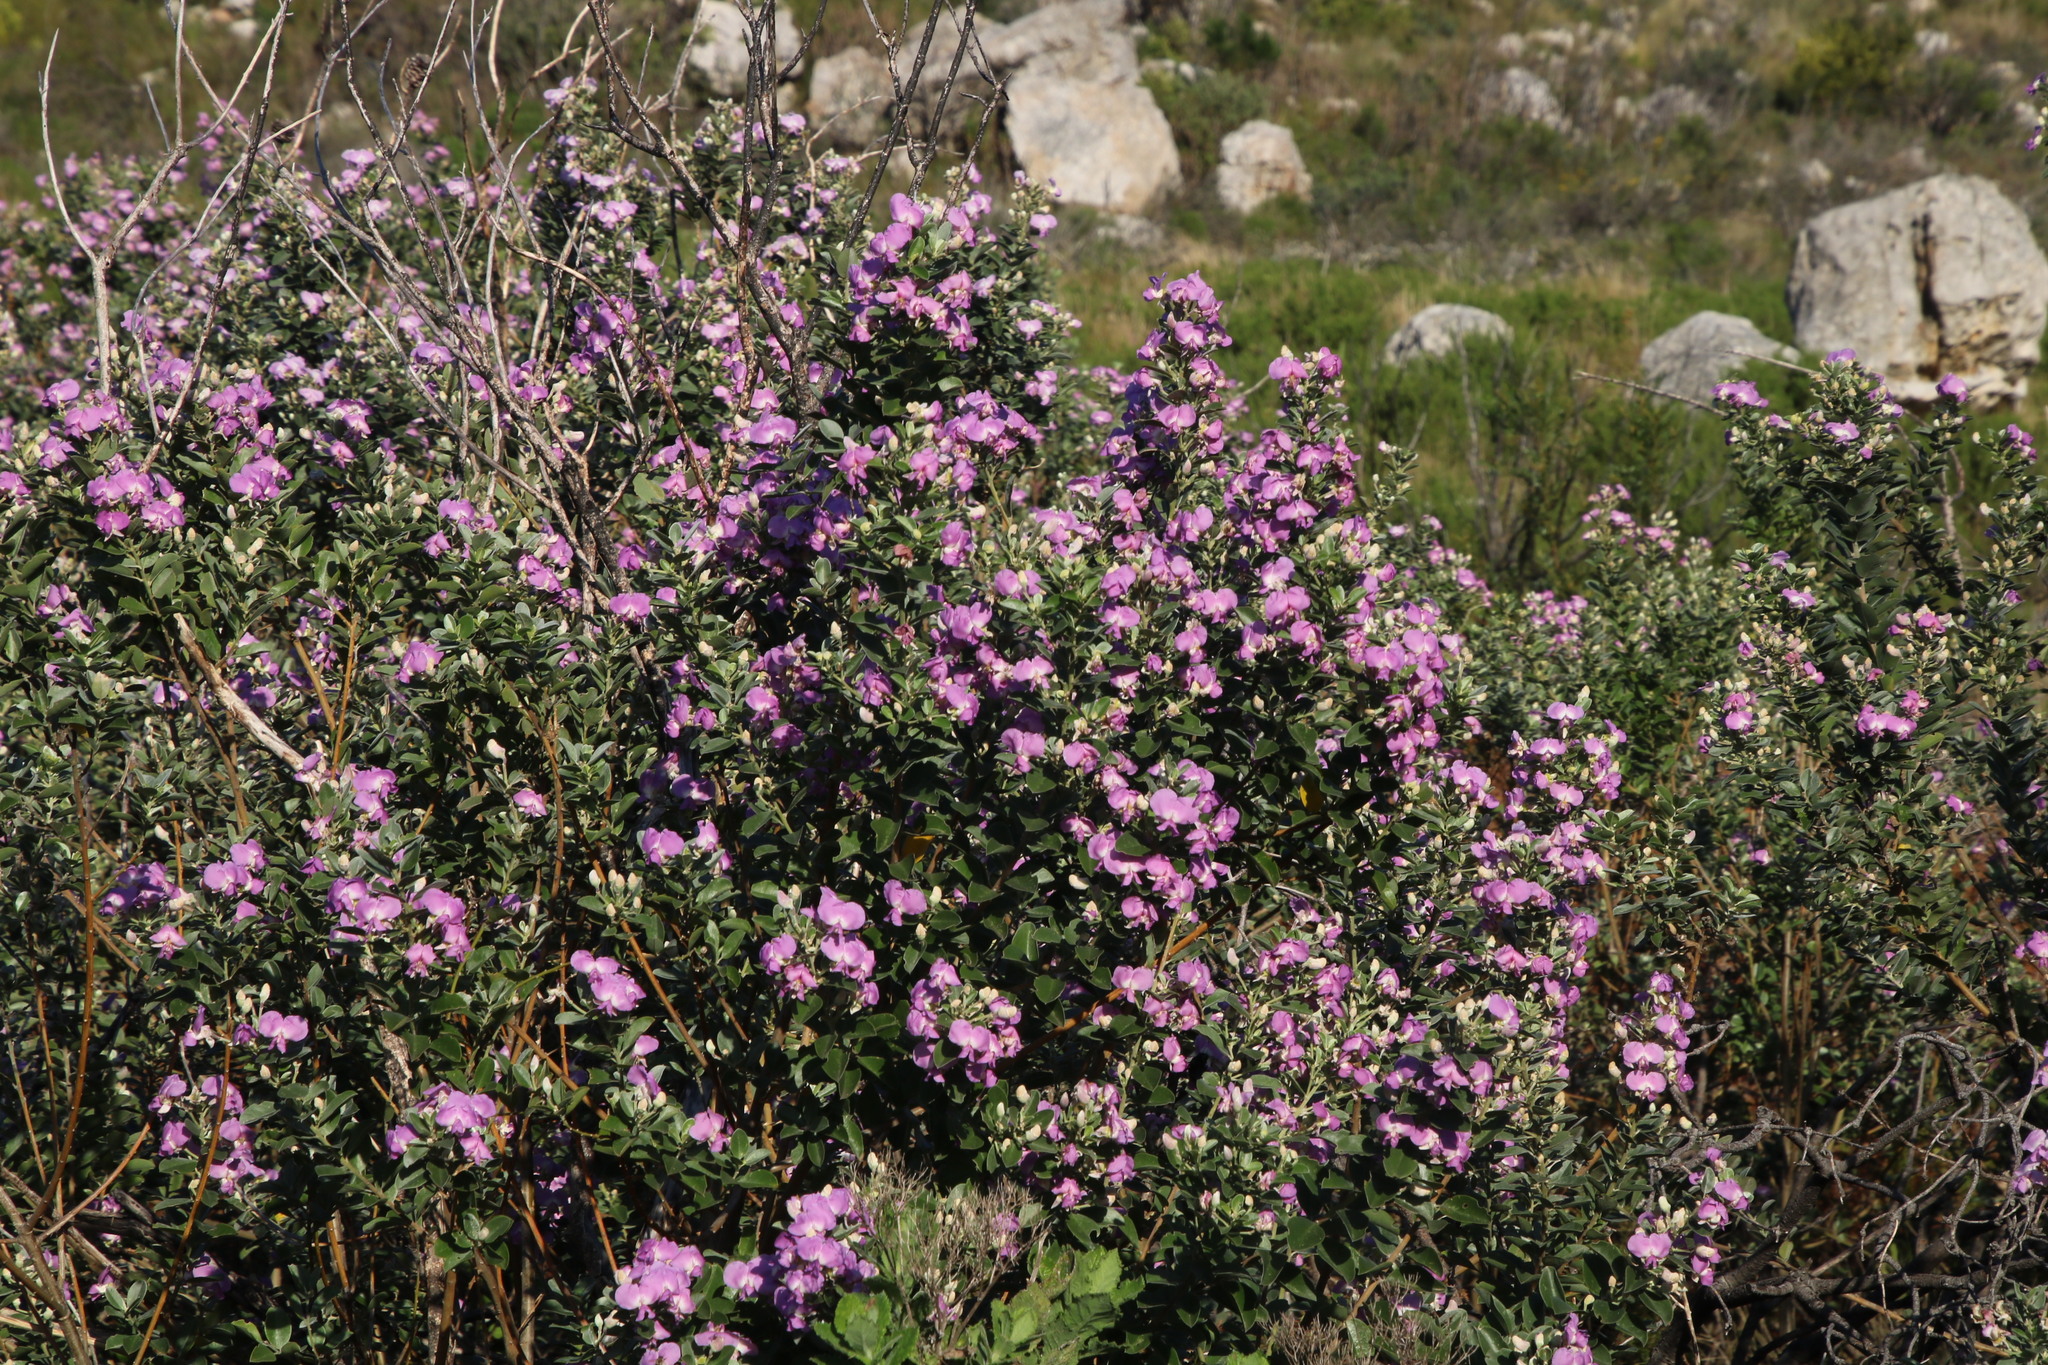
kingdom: Plantae
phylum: Tracheophyta
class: Magnoliopsida
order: Fabales
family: Fabaceae
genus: Podalyria
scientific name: Podalyria calyptrata
